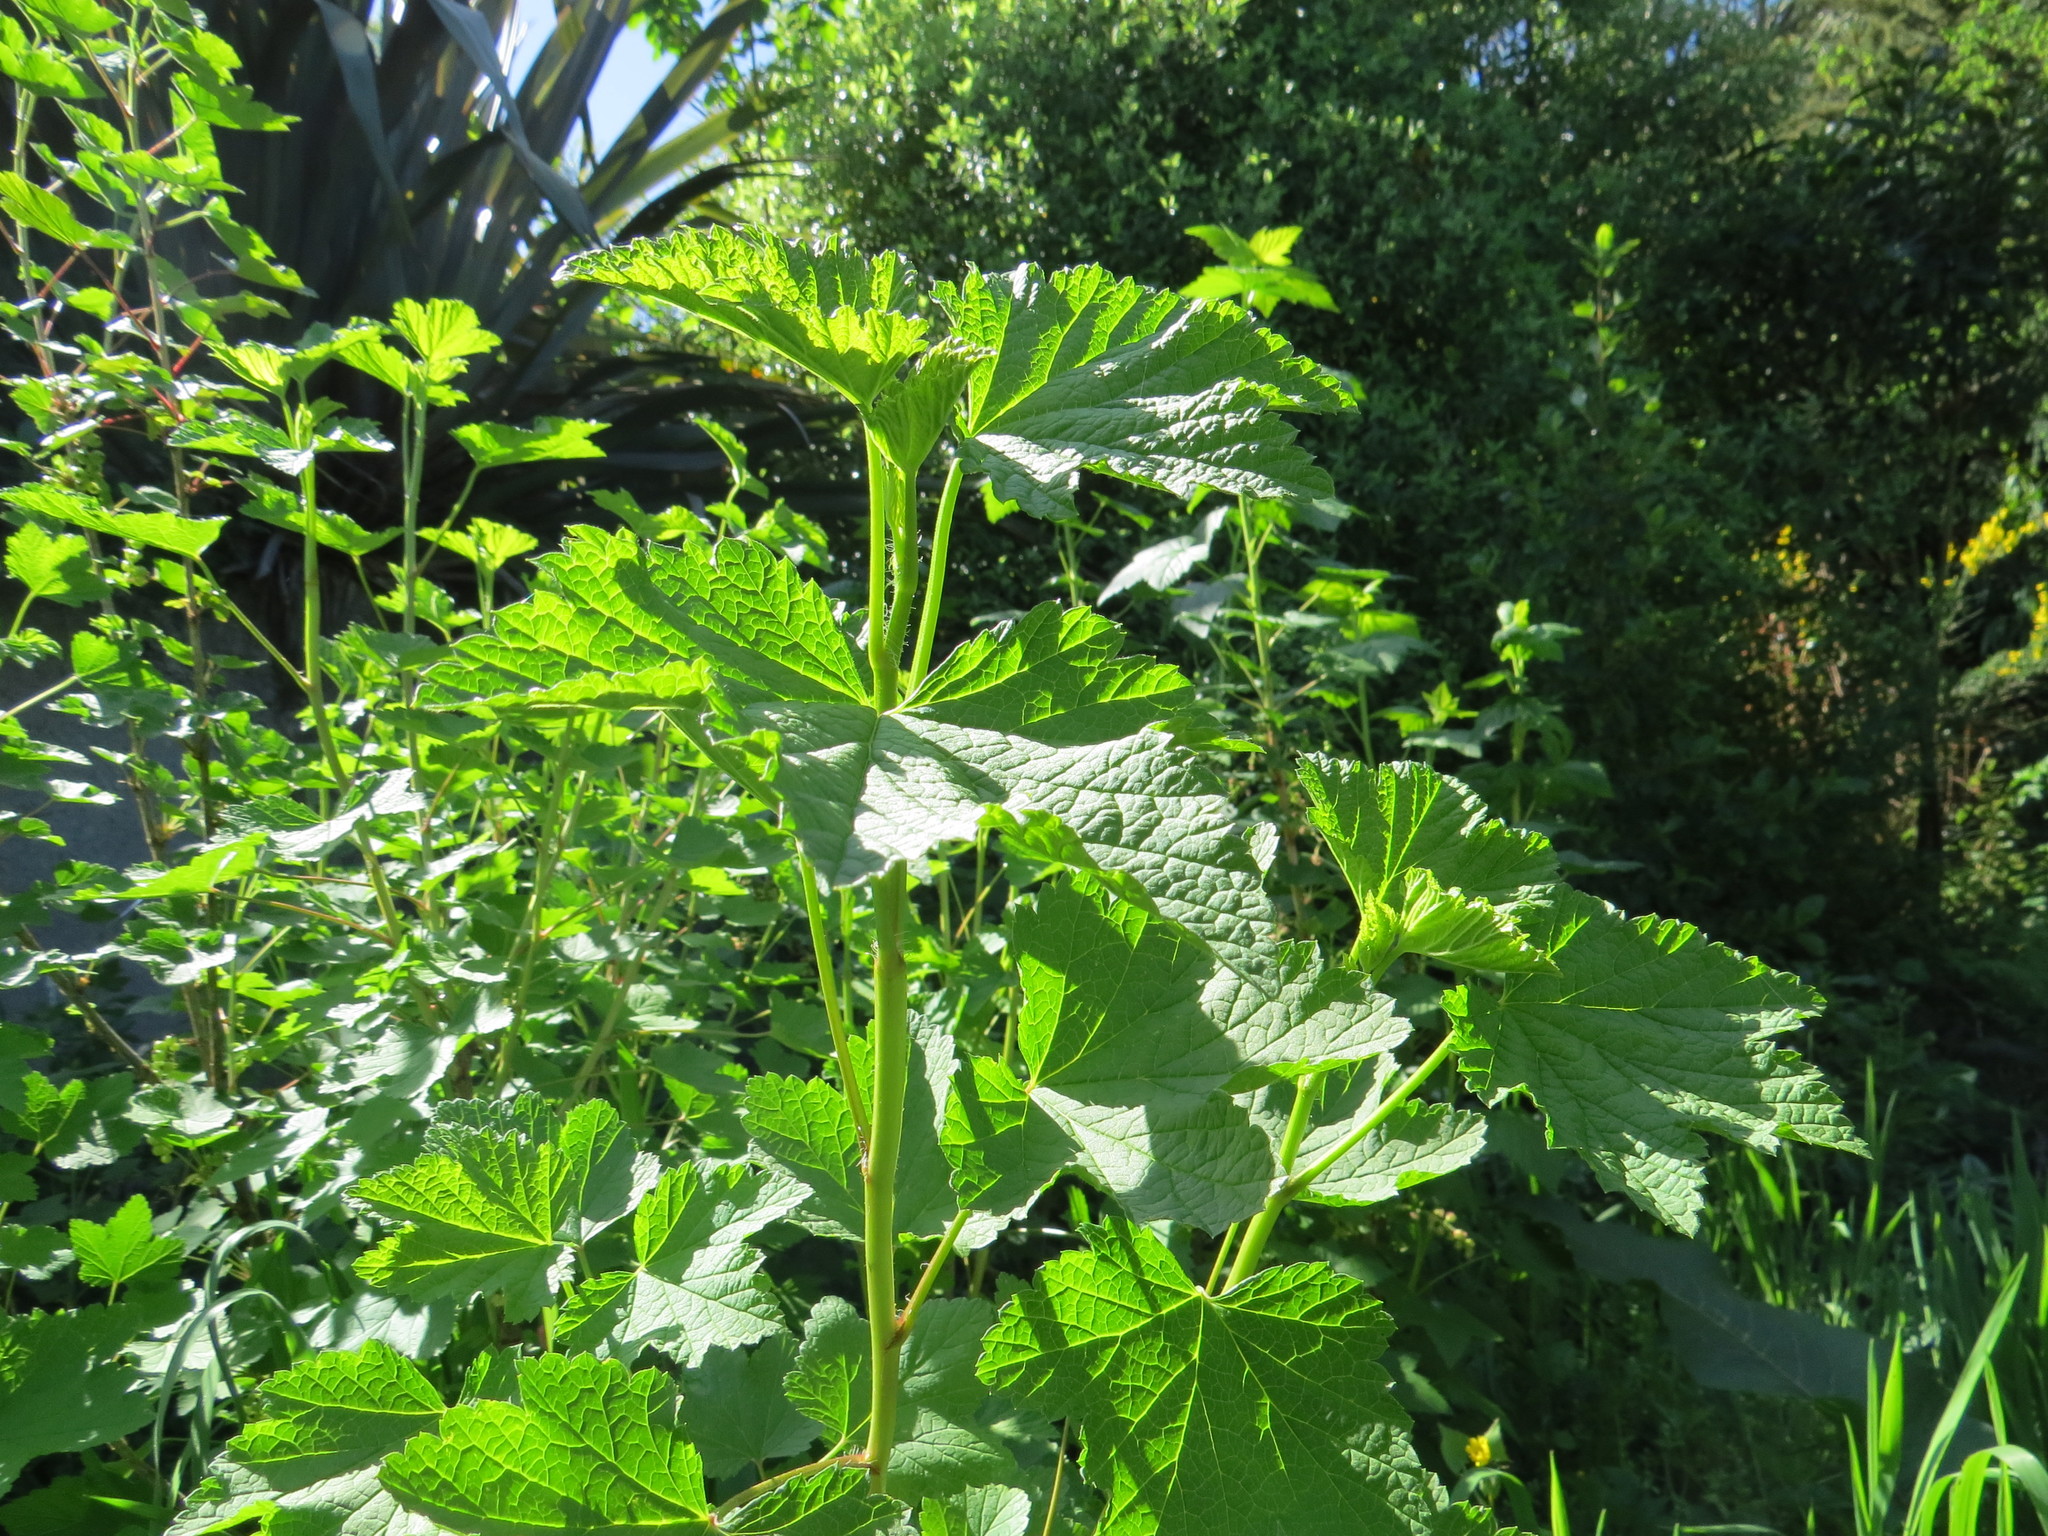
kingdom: Plantae
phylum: Tracheophyta
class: Magnoliopsida
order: Saxifragales
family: Grossulariaceae
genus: Ribes
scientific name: Ribes nigrum
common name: Black currant
